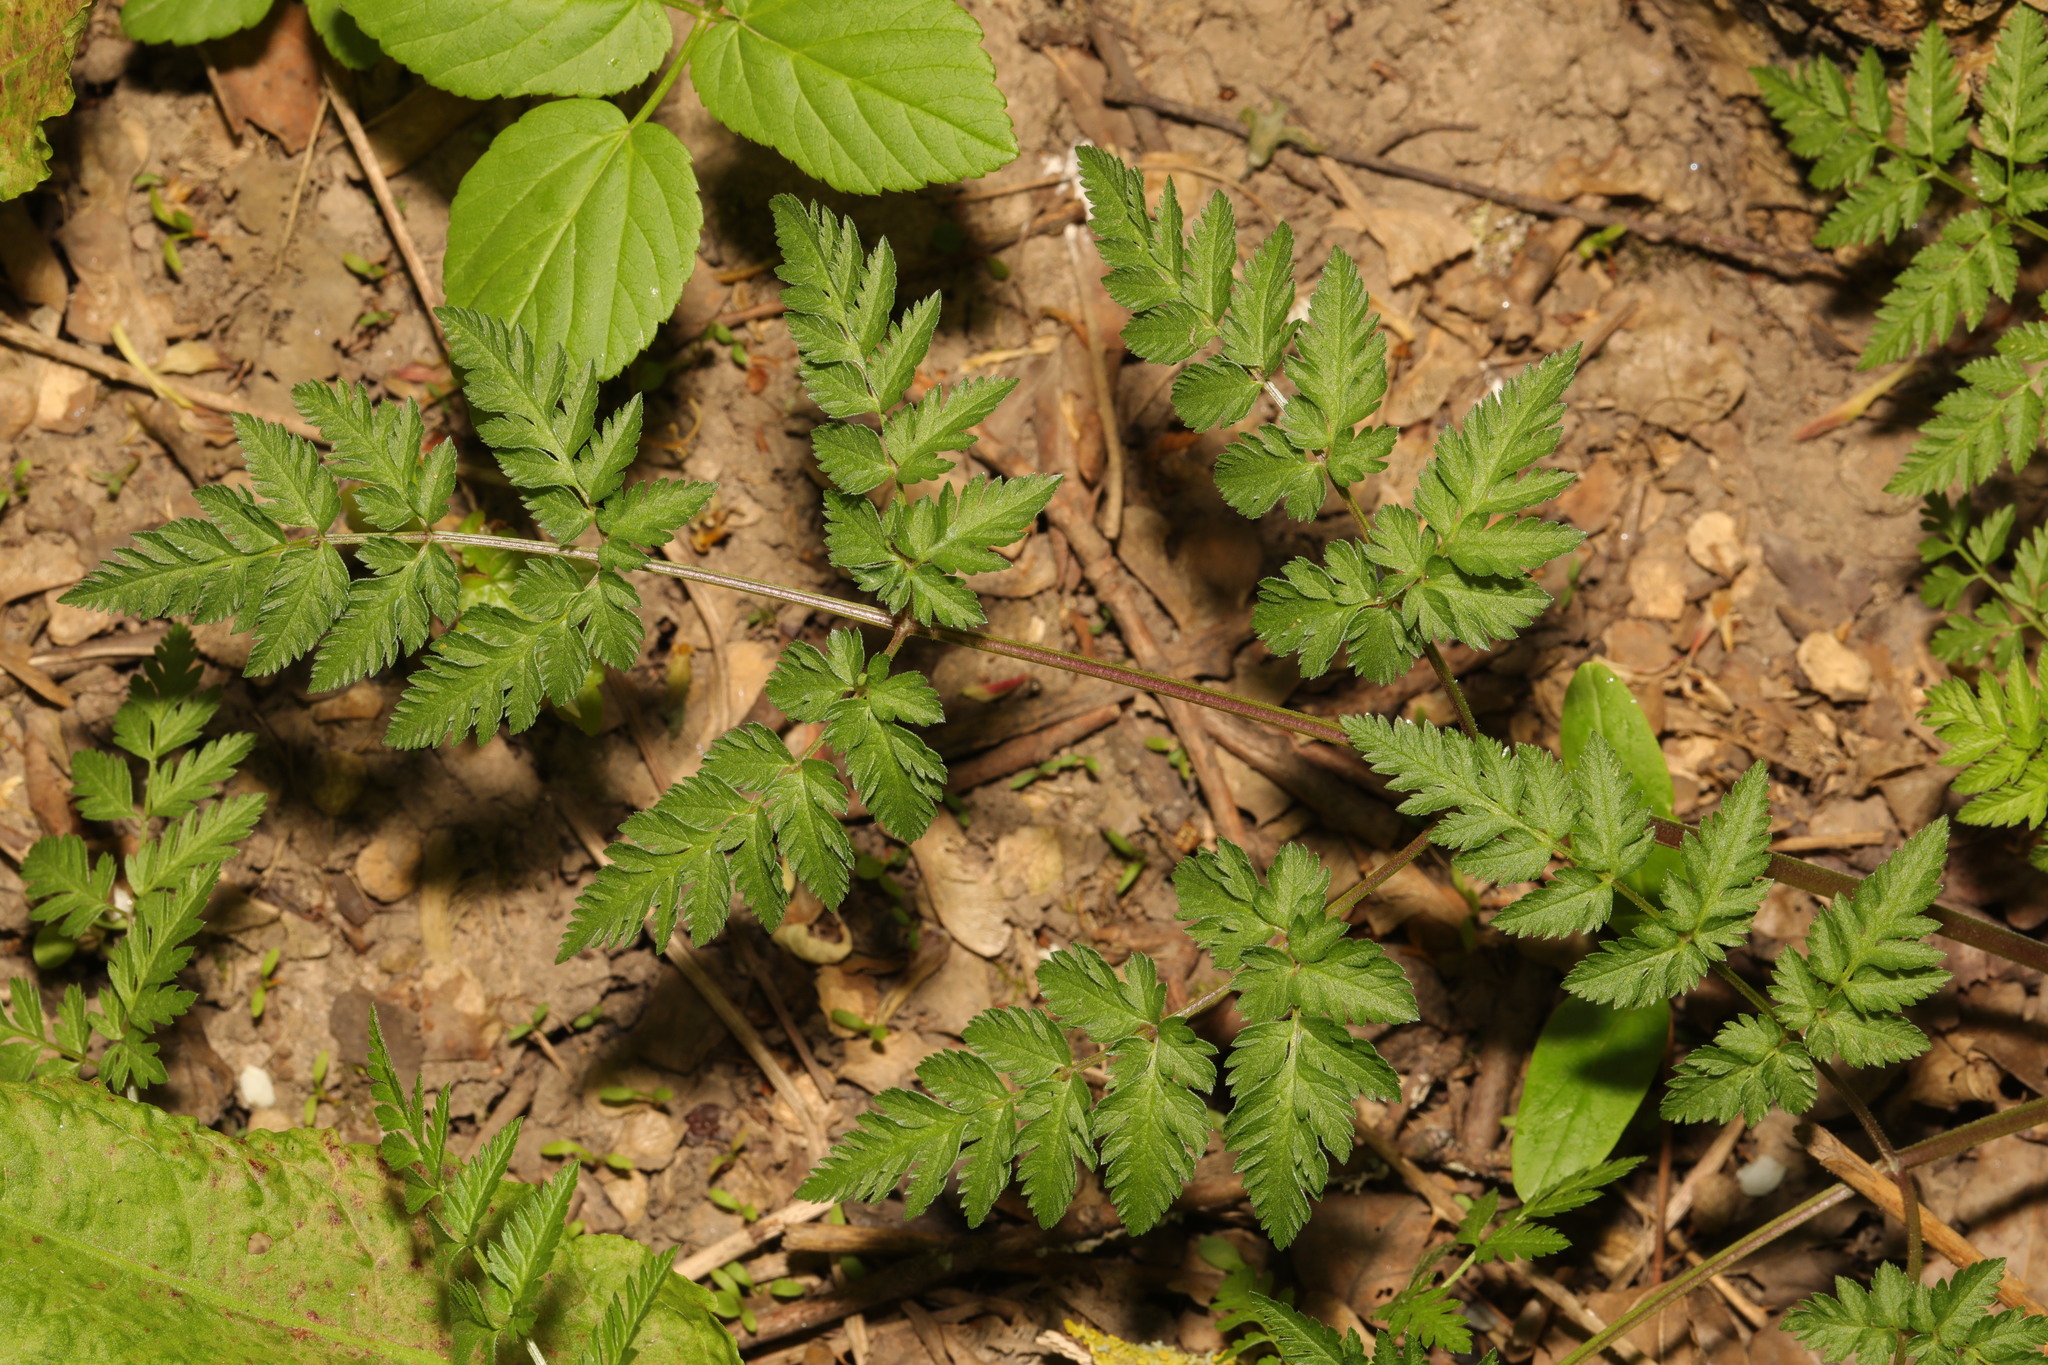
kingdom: Plantae
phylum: Tracheophyta
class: Magnoliopsida
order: Apiales
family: Apiaceae
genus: Anthriscus
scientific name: Anthriscus sylvestris
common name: Cow parsley
